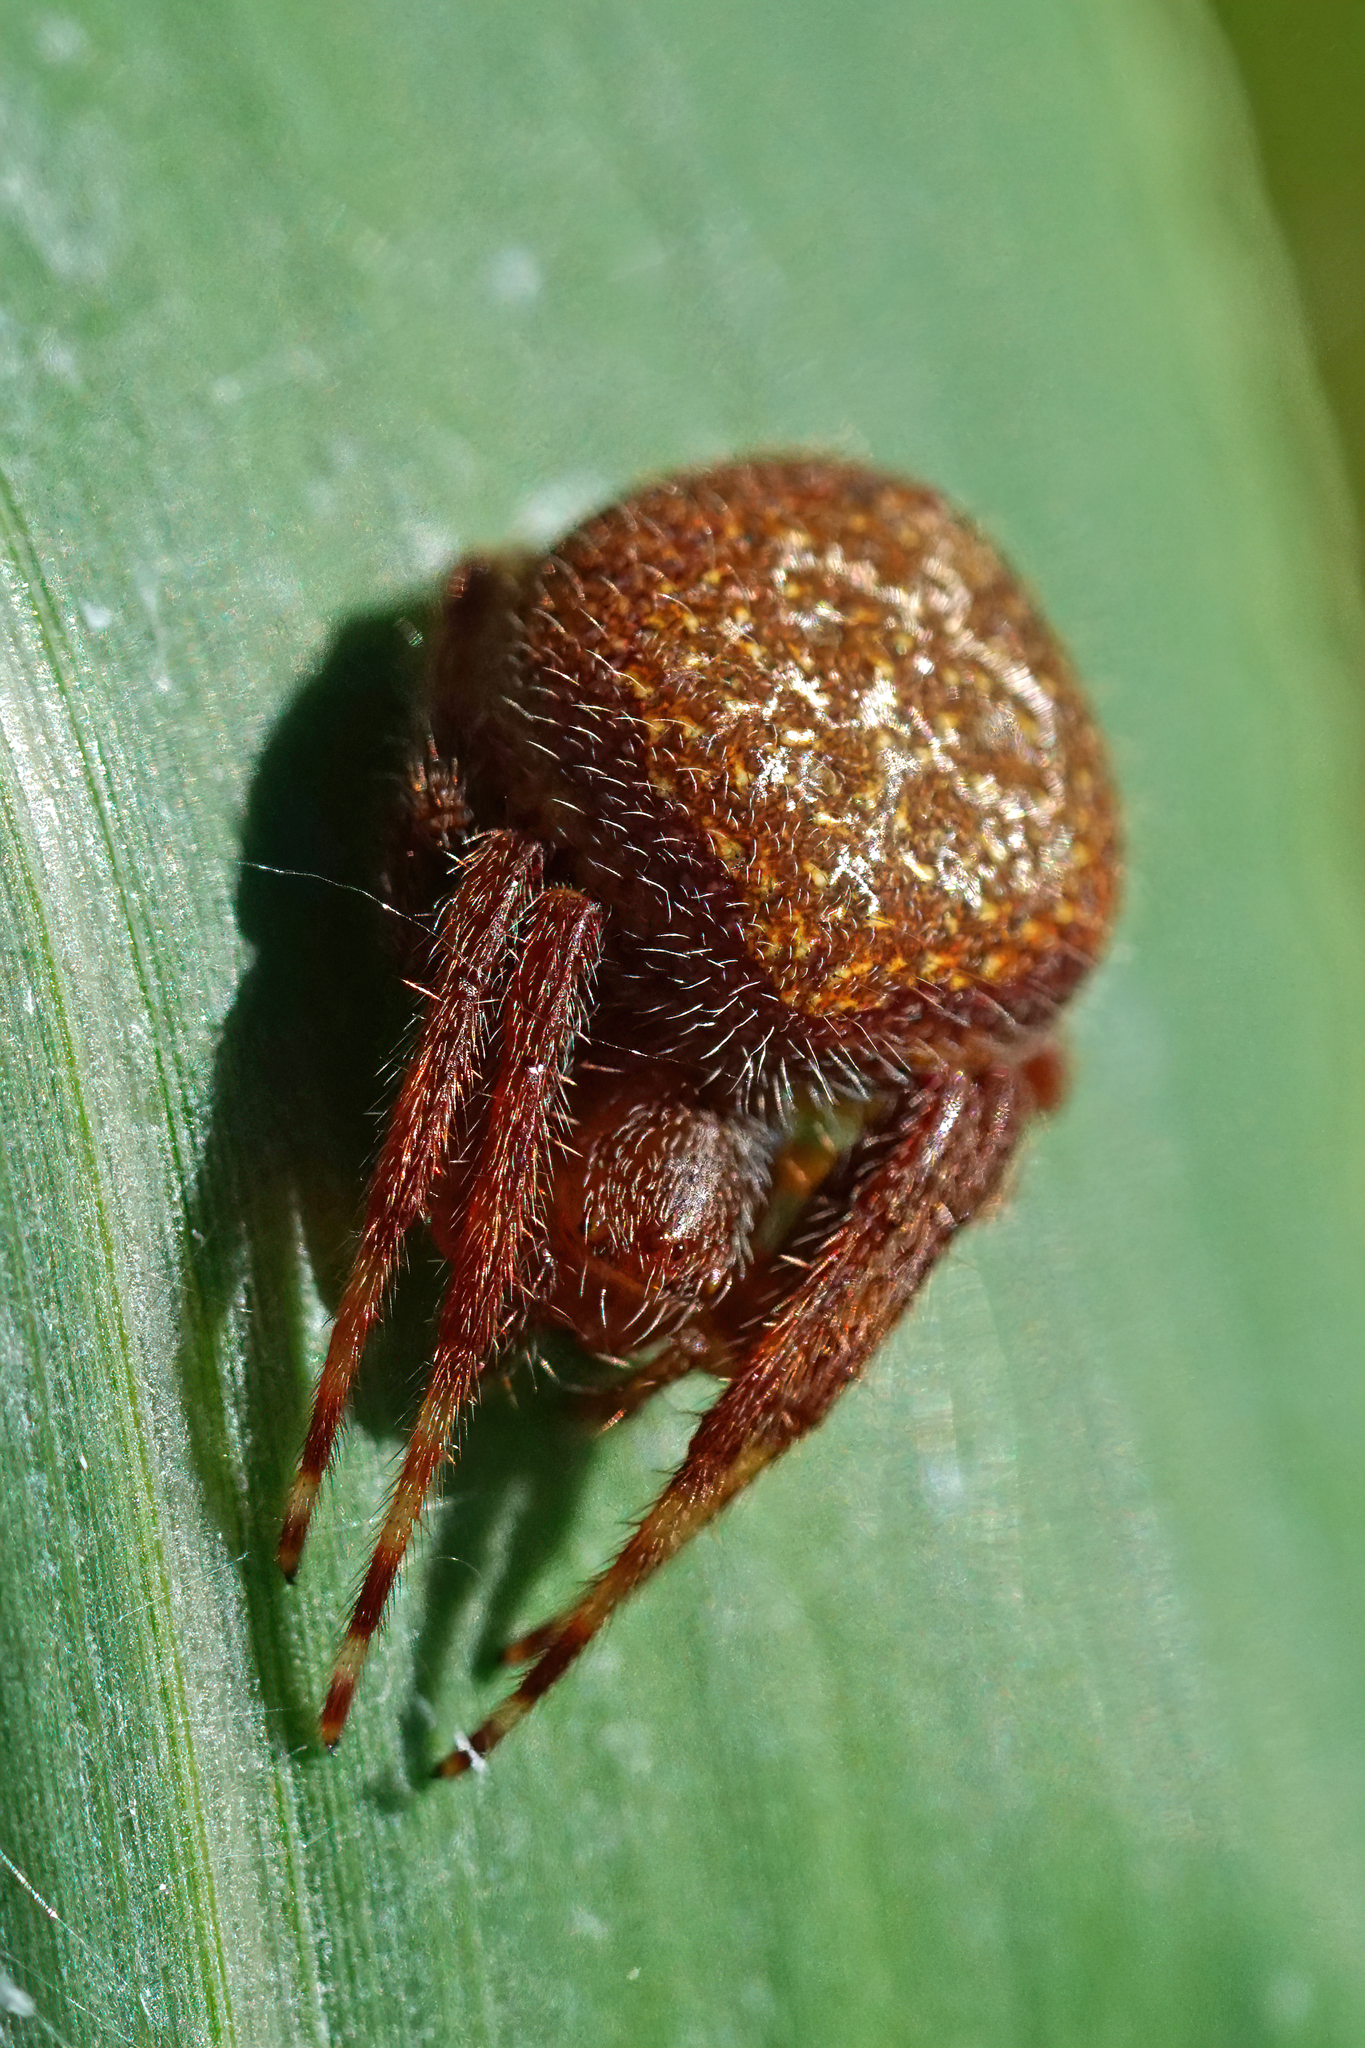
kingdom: Animalia
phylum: Arthropoda
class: Arachnida
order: Araneae
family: Araneidae
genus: Eriophora
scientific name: Eriophora ravilla
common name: Orb weavers
